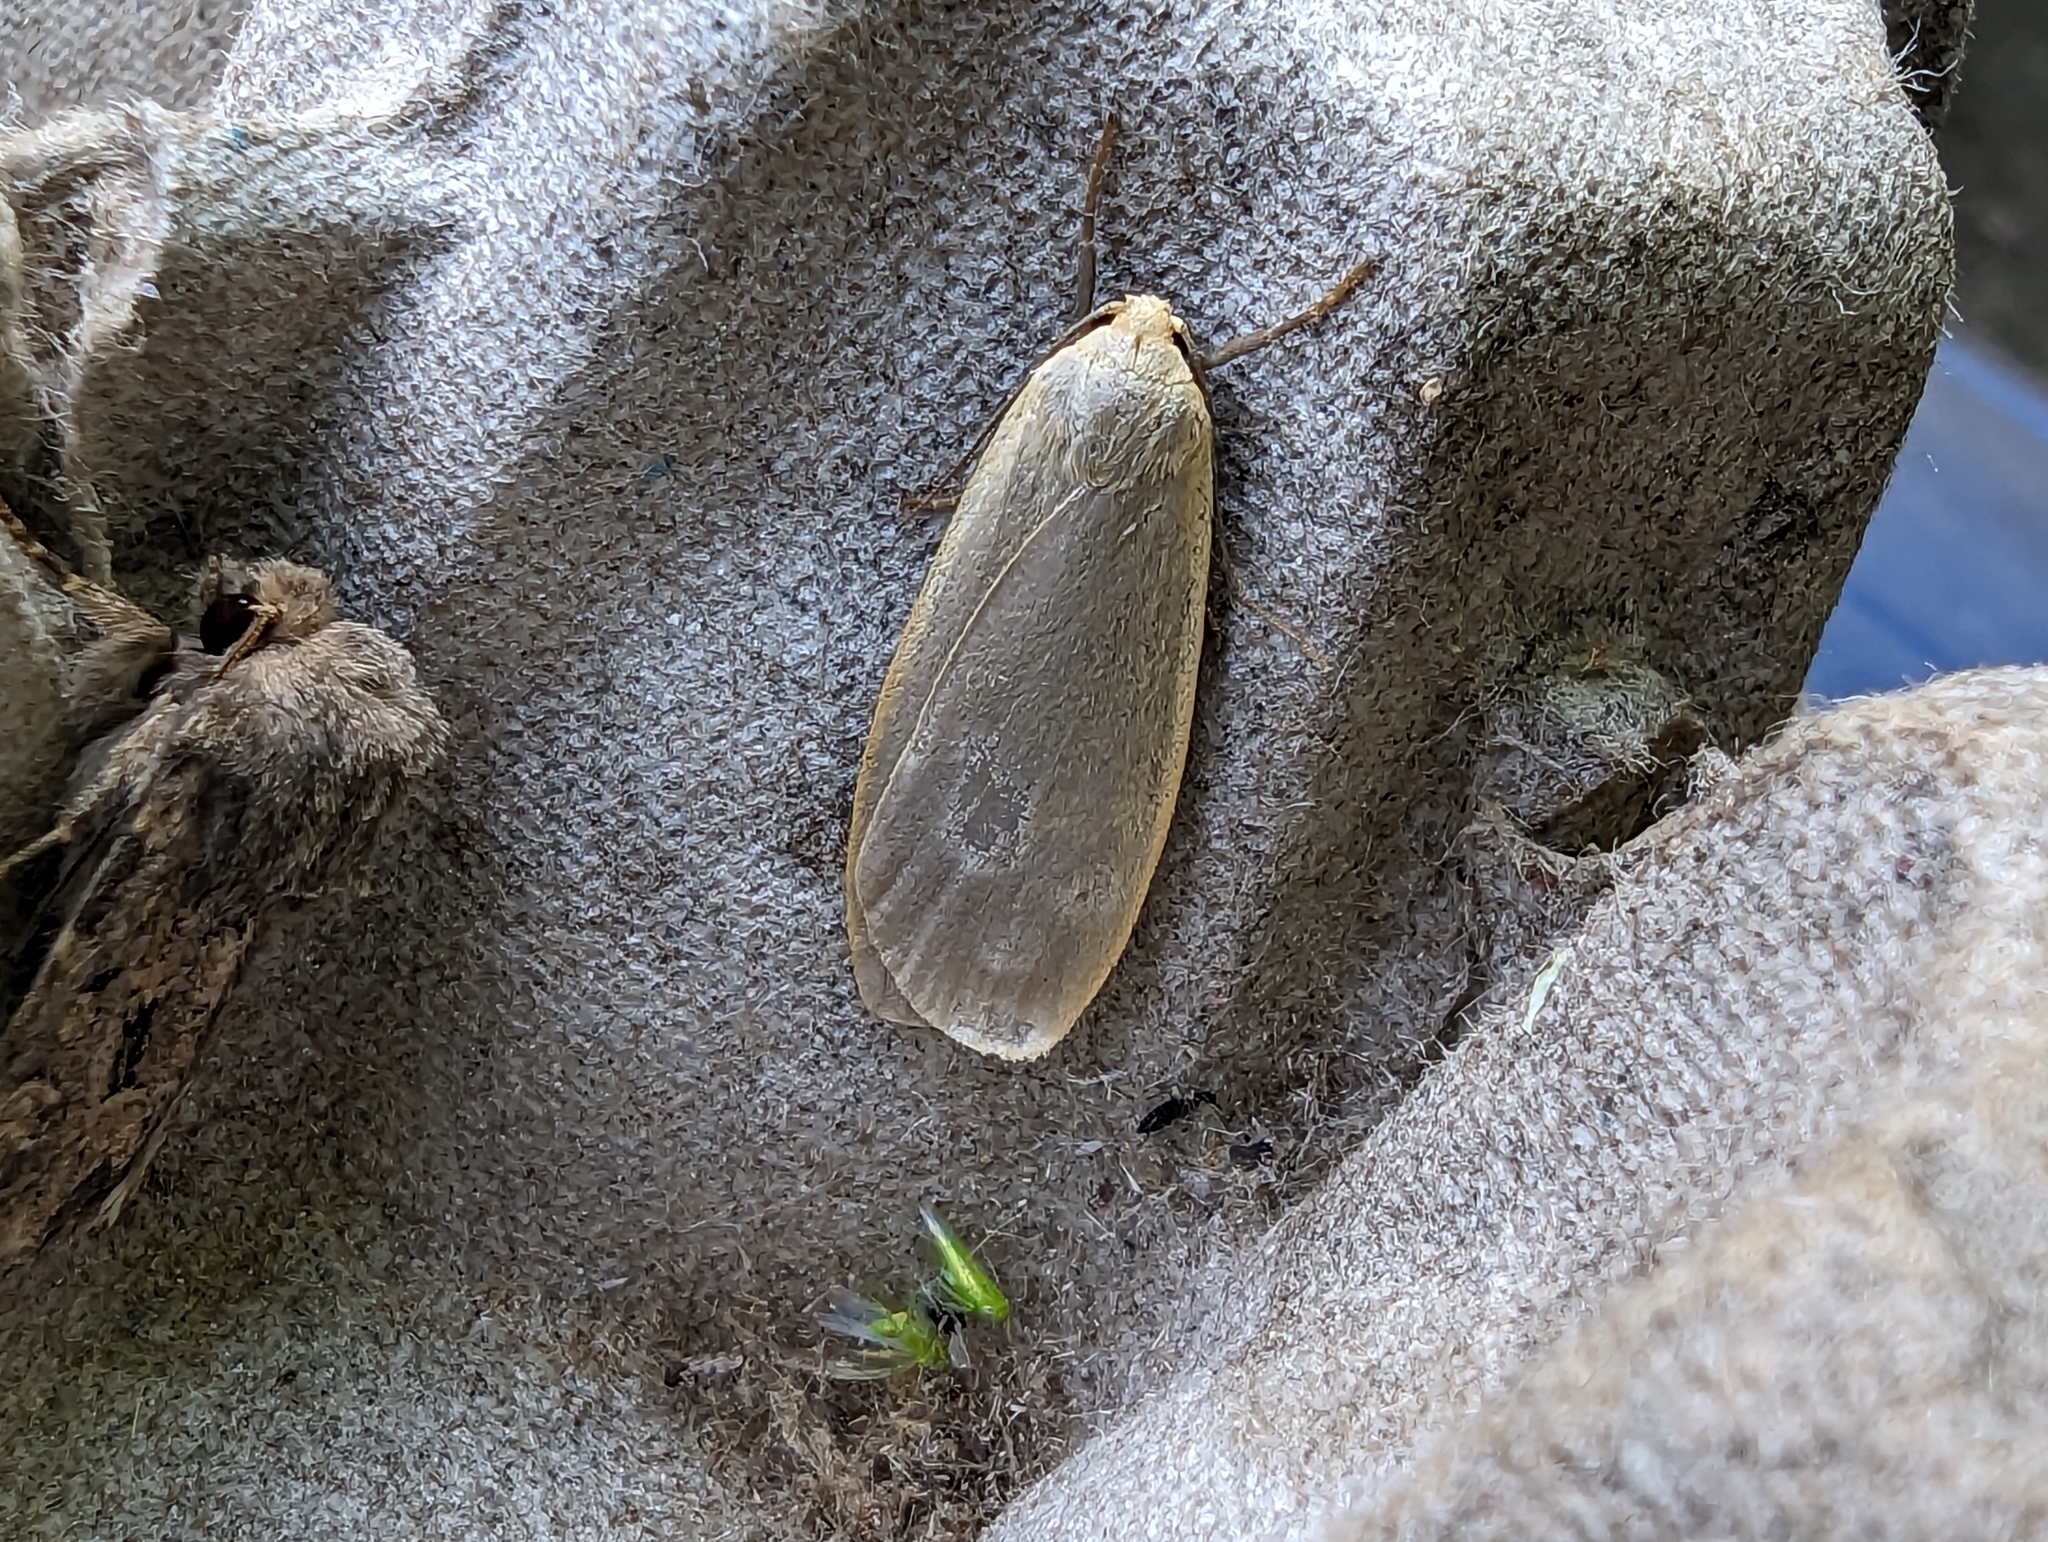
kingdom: Animalia
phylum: Arthropoda
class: Insecta
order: Lepidoptera
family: Erebidae
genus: Collita
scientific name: Collita griseola
